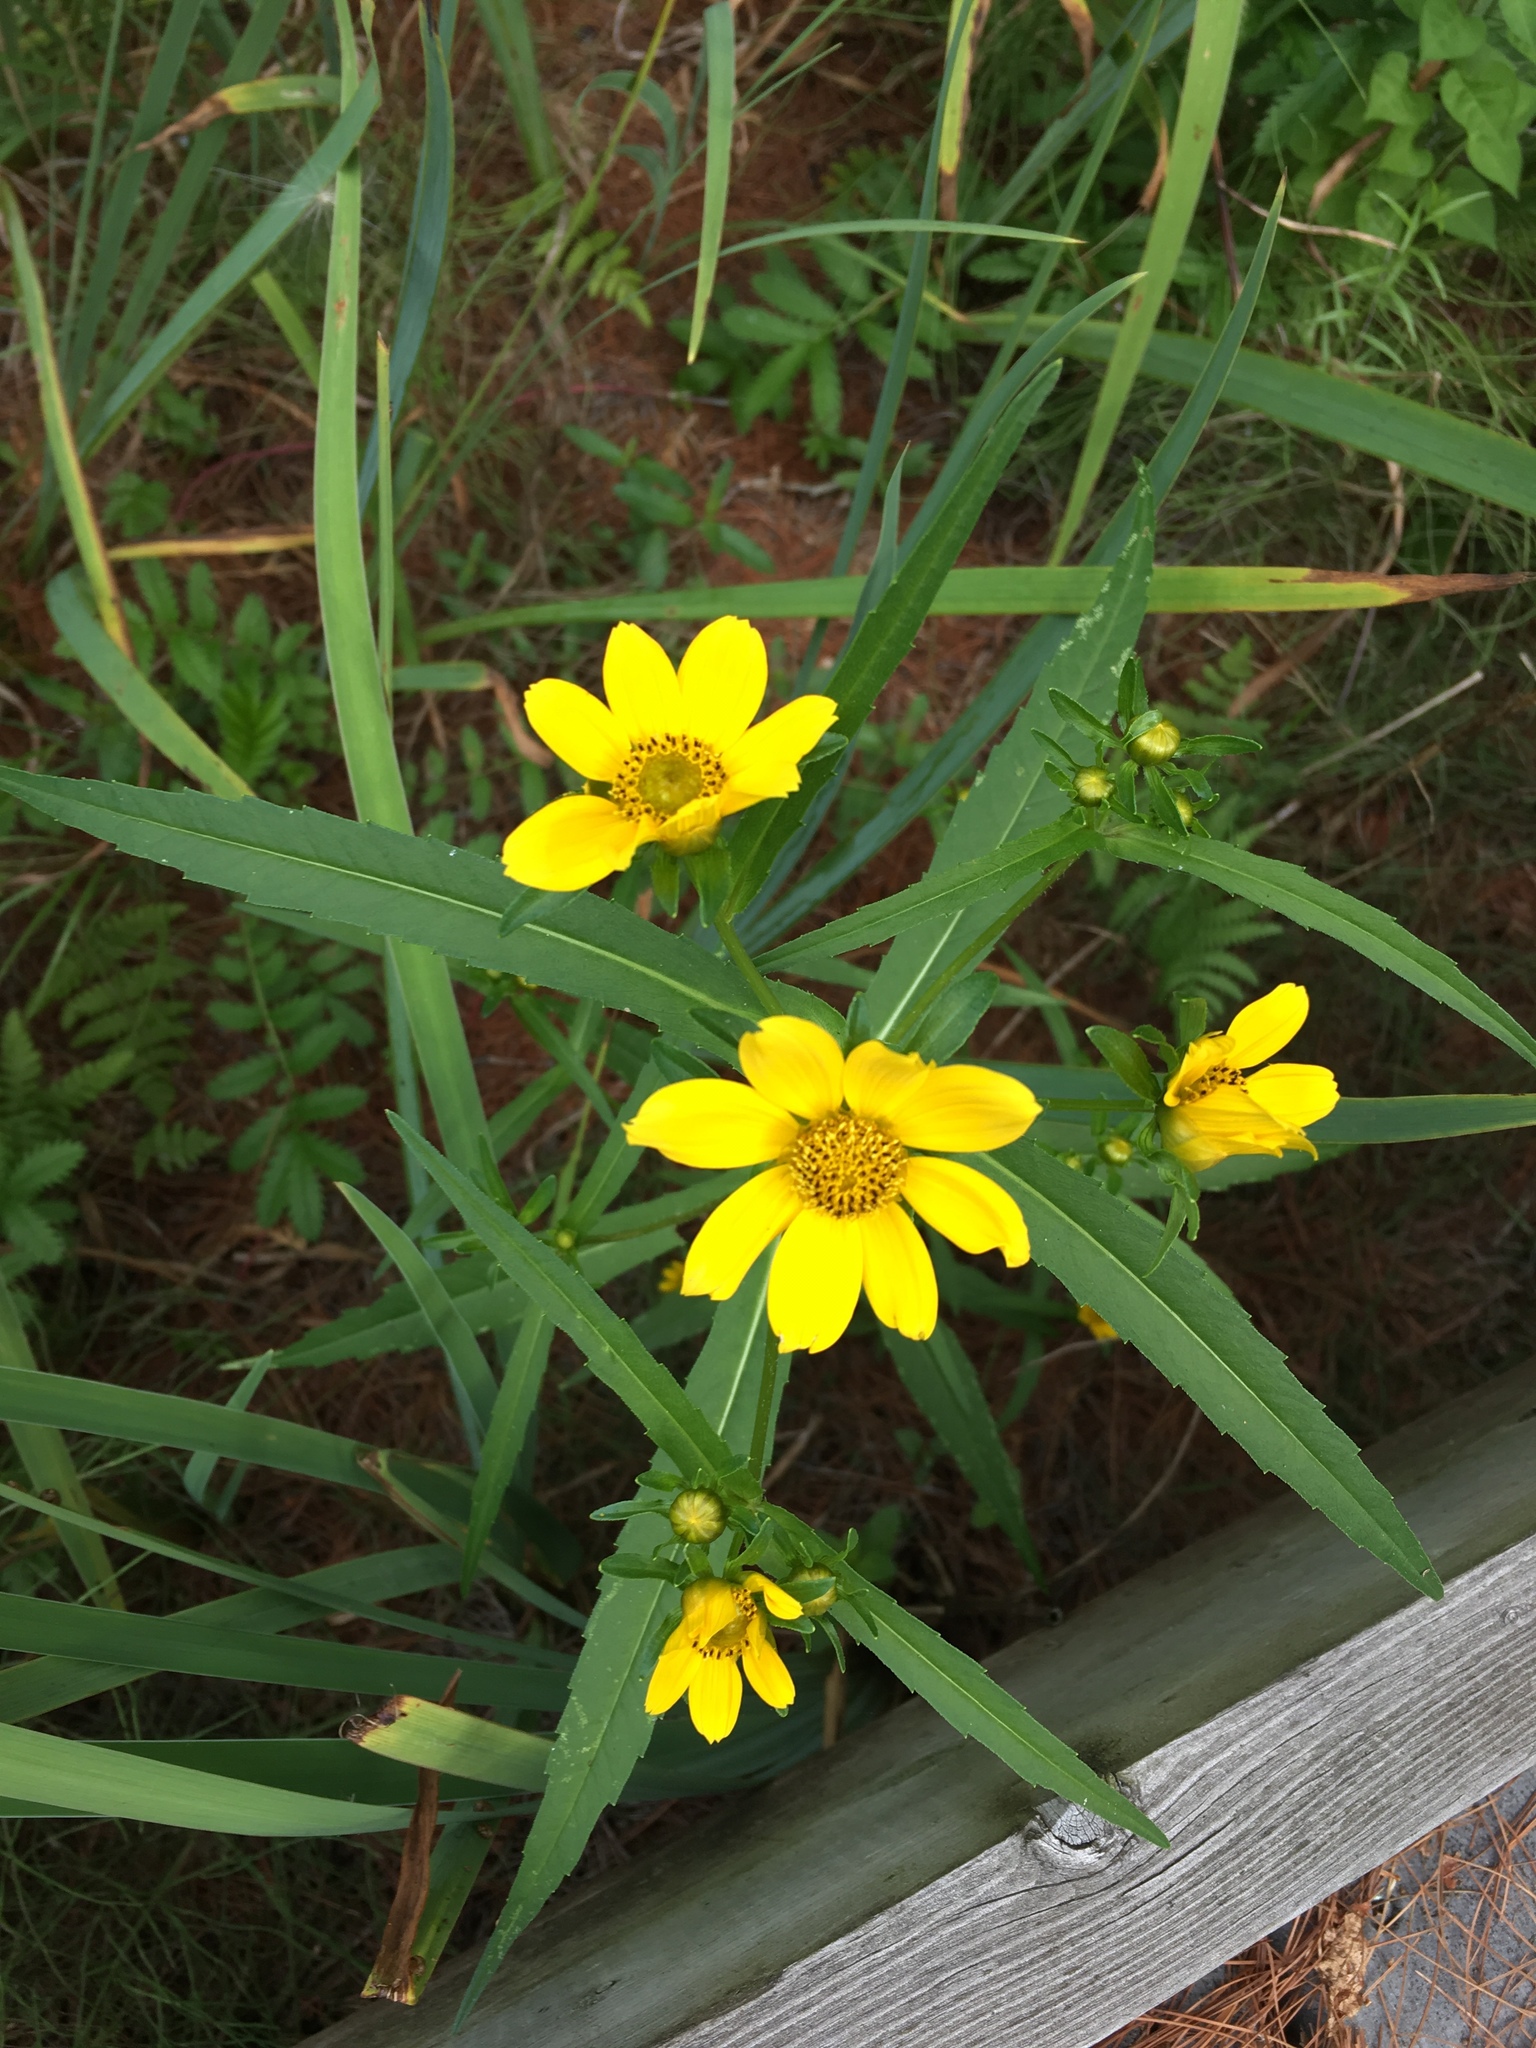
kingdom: Plantae
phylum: Tracheophyta
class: Magnoliopsida
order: Asterales
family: Asteraceae
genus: Bidens
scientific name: Bidens cernua
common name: Nodding bur-marigold
